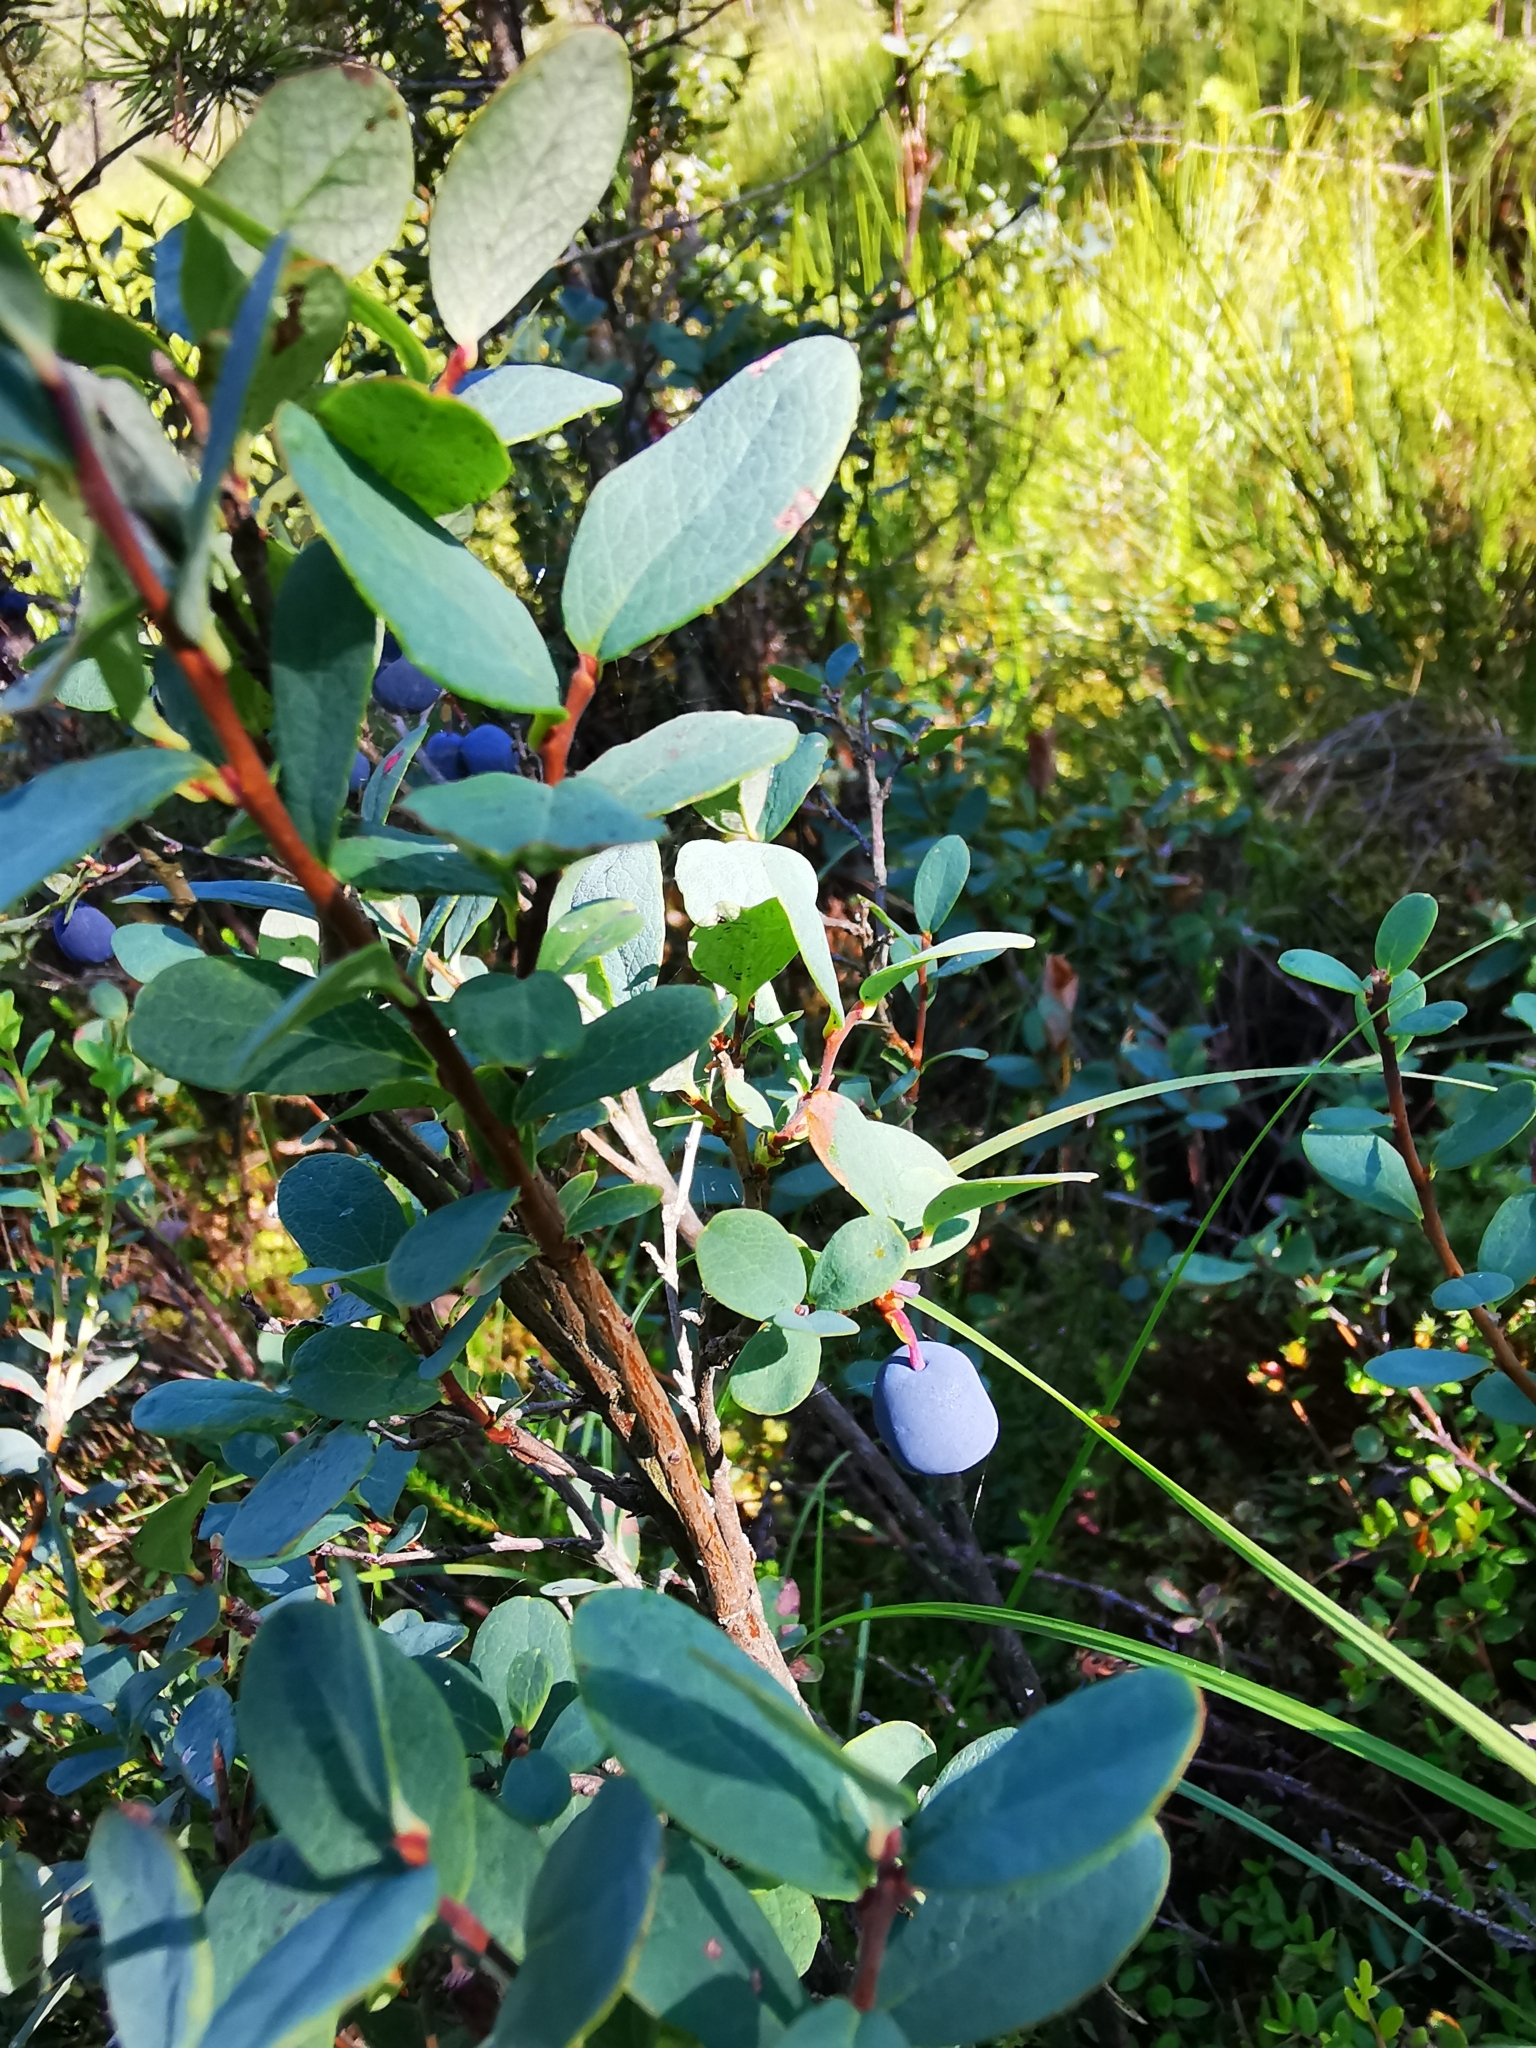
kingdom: Plantae
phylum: Tracheophyta
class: Magnoliopsida
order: Ericales
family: Ericaceae
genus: Vaccinium
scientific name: Vaccinium uliginosum
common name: Bog bilberry
